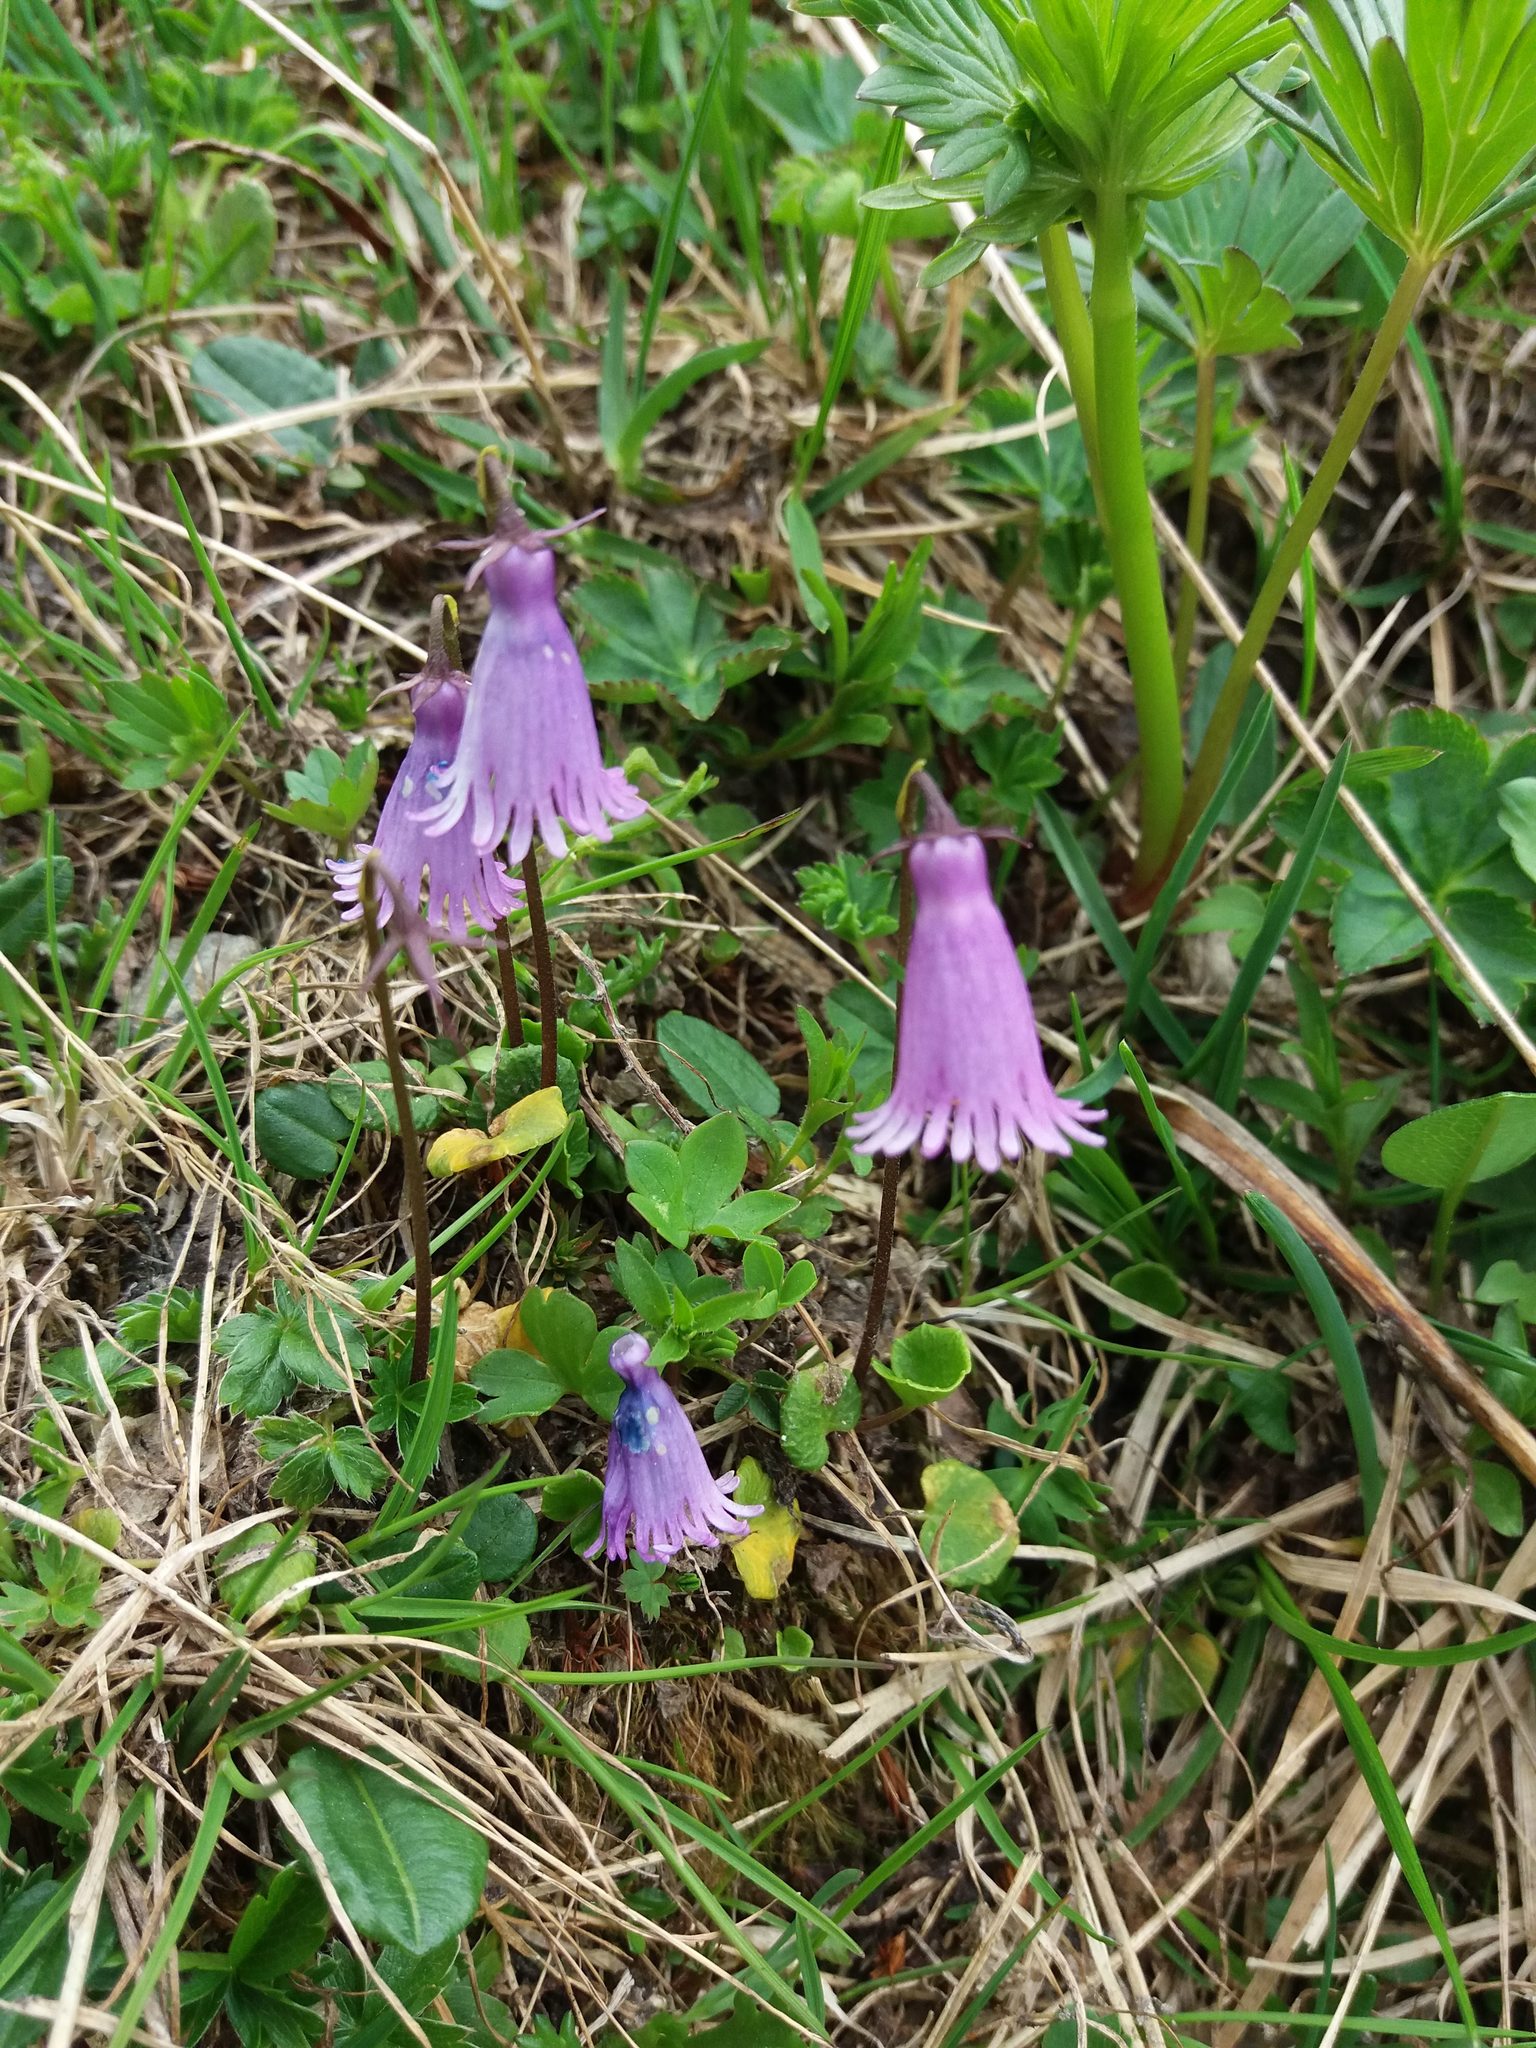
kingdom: Plantae
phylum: Tracheophyta
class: Magnoliopsida
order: Ericales
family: Primulaceae
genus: Soldanella
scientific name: Soldanella pusilla
